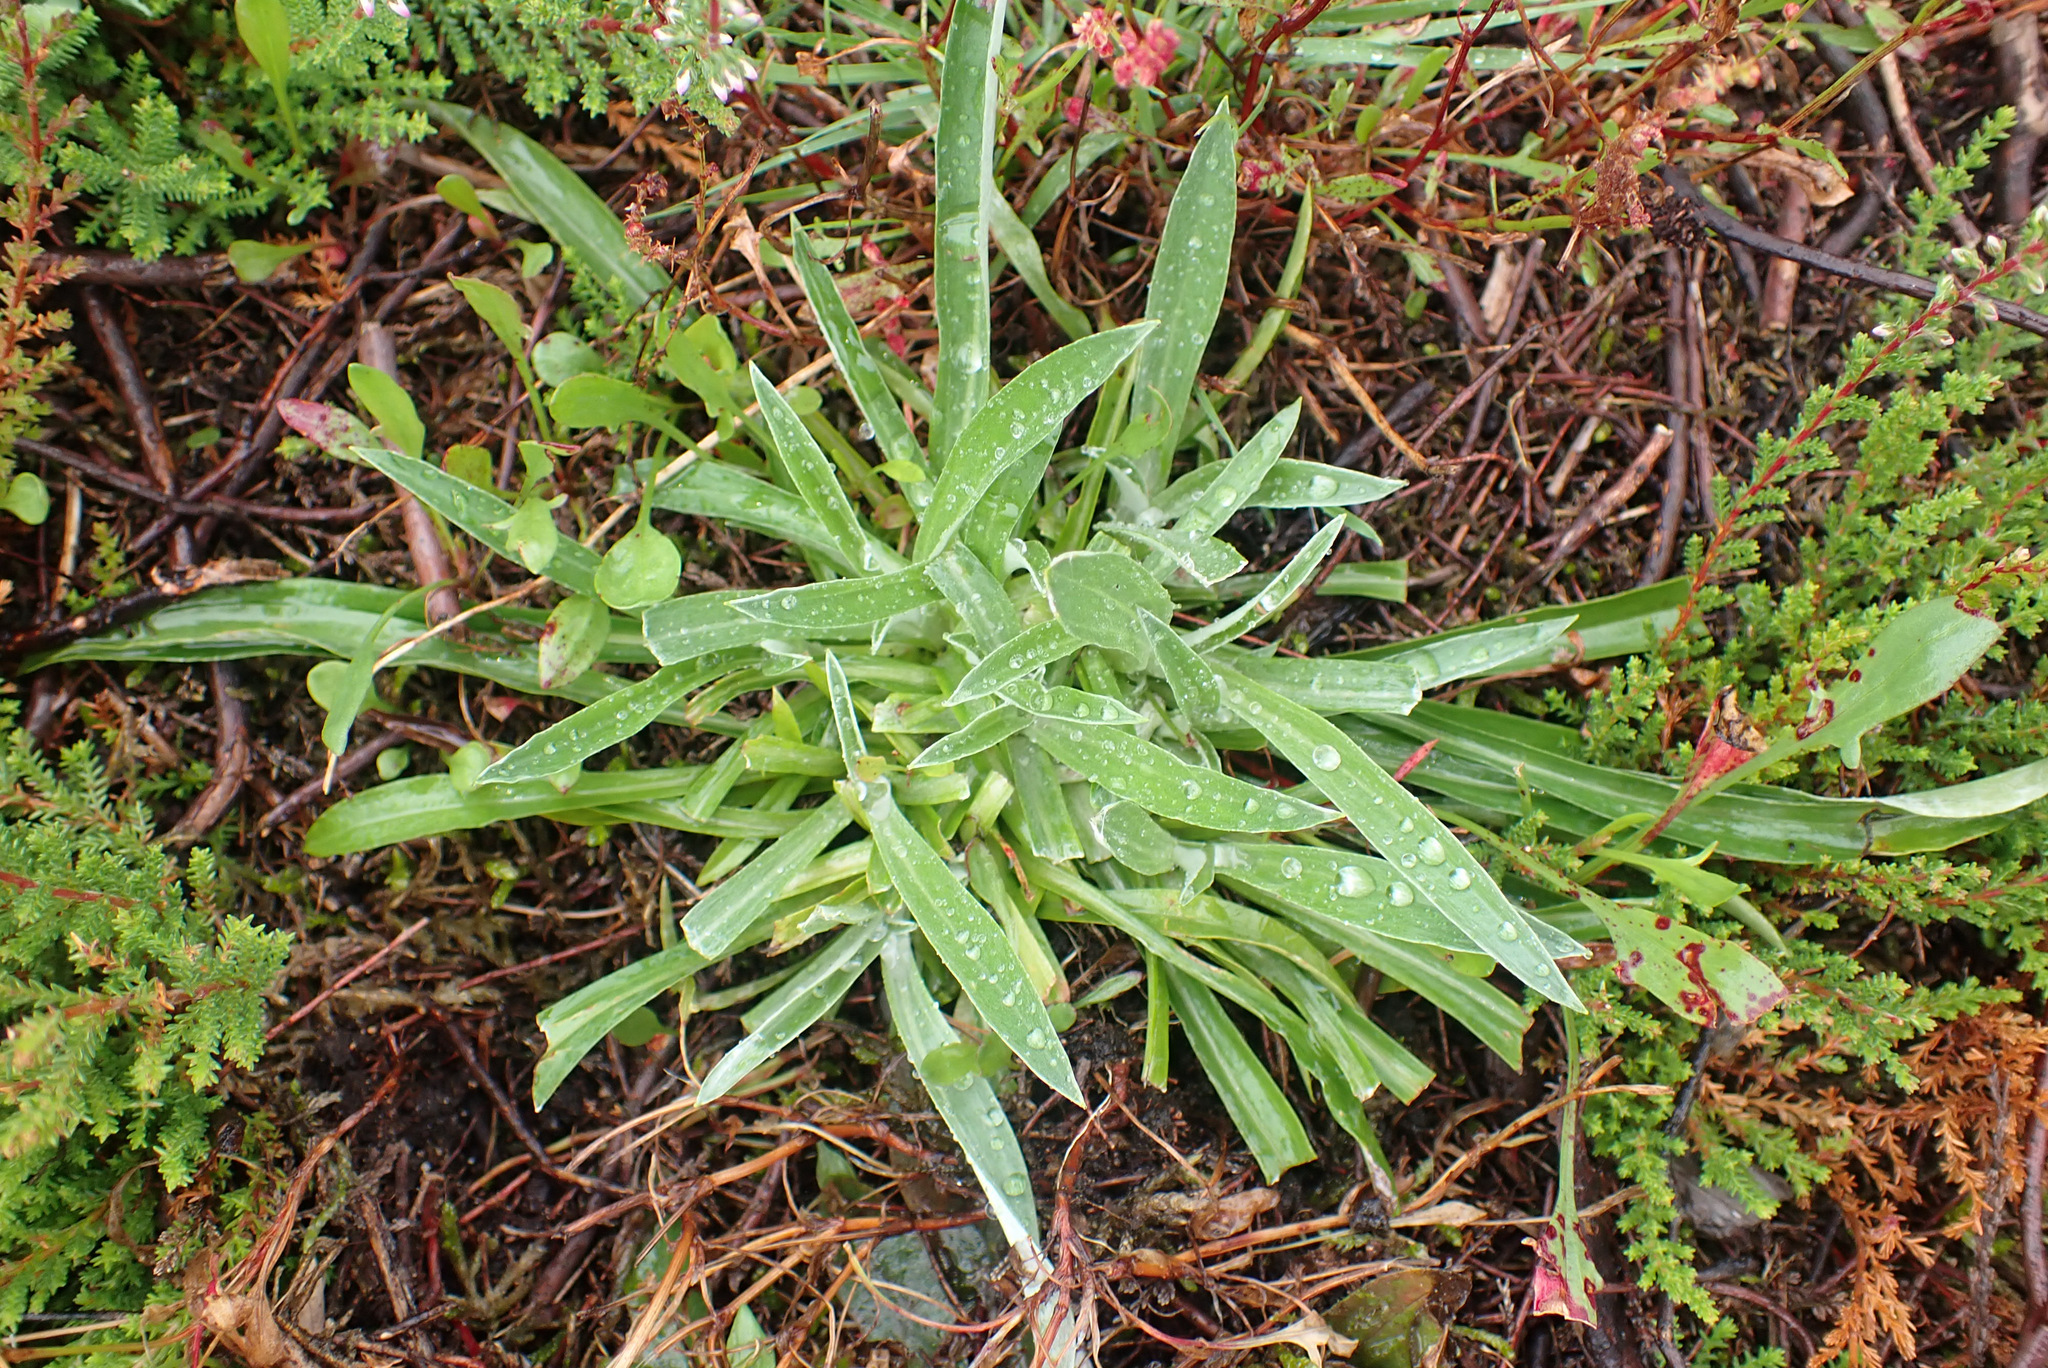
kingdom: Plantae
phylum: Tracheophyta
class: Magnoliopsida
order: Asterales
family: Asteraceae
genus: Omalotheca
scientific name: Omalotheca sylvatica
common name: Heath cudweed
